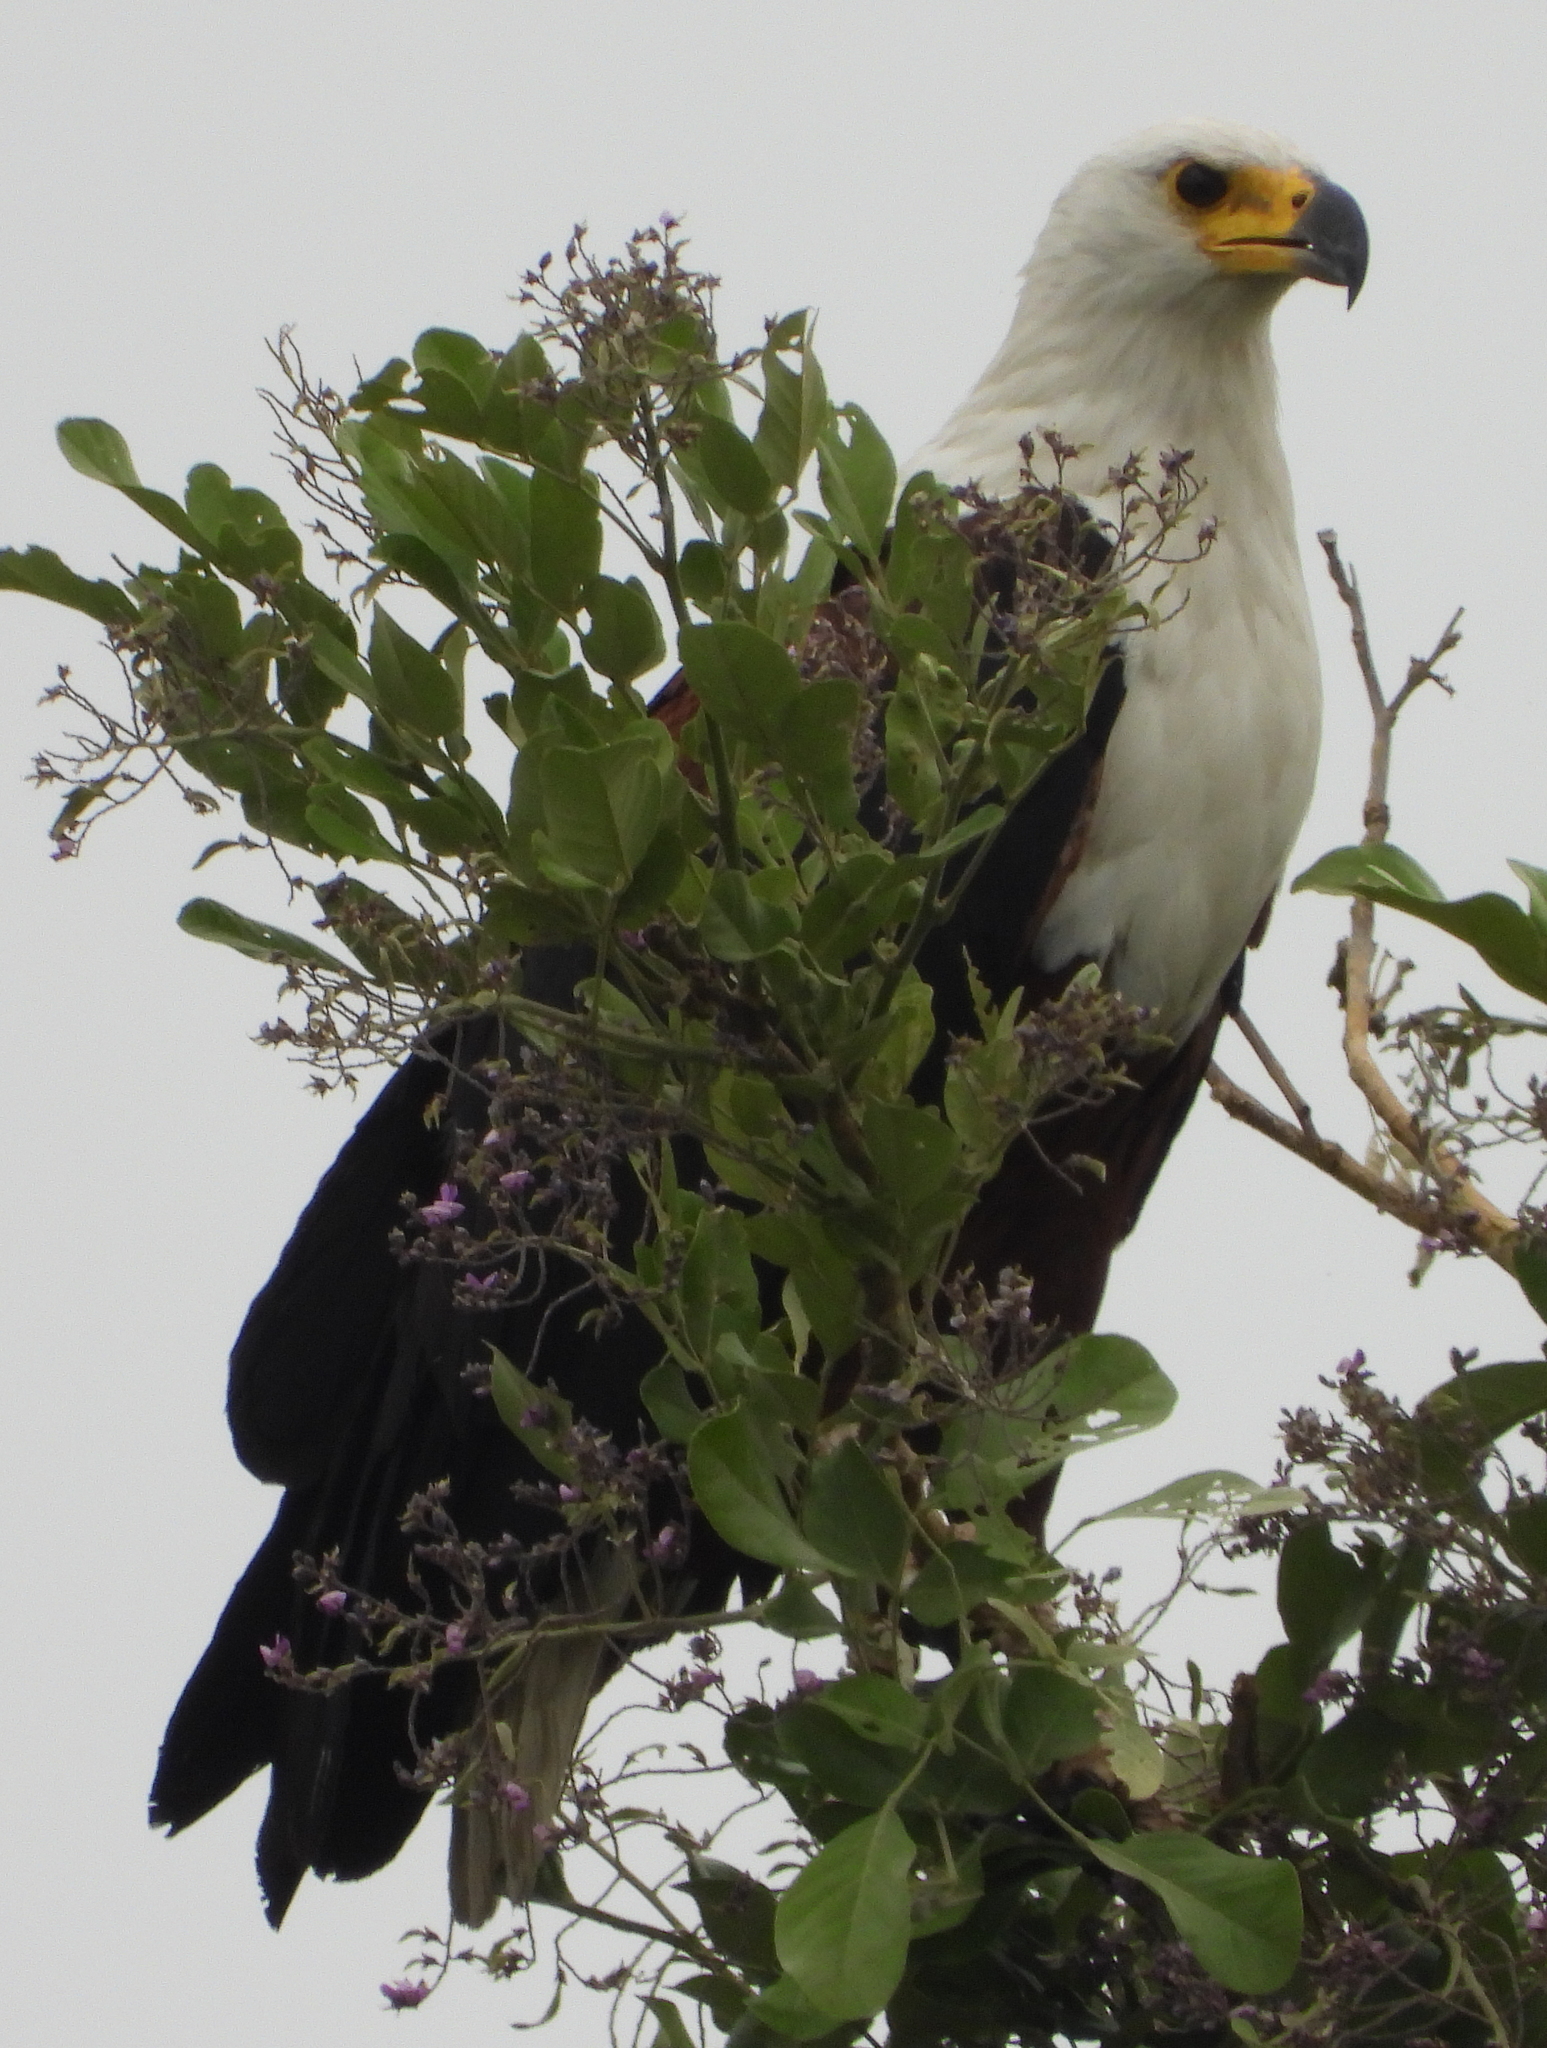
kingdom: Animalia
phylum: Chordata
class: Aves
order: Accipitriformes
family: Accipitridae
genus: Haliaeetus
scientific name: Haliaeetus vocifer
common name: African fish eagle
